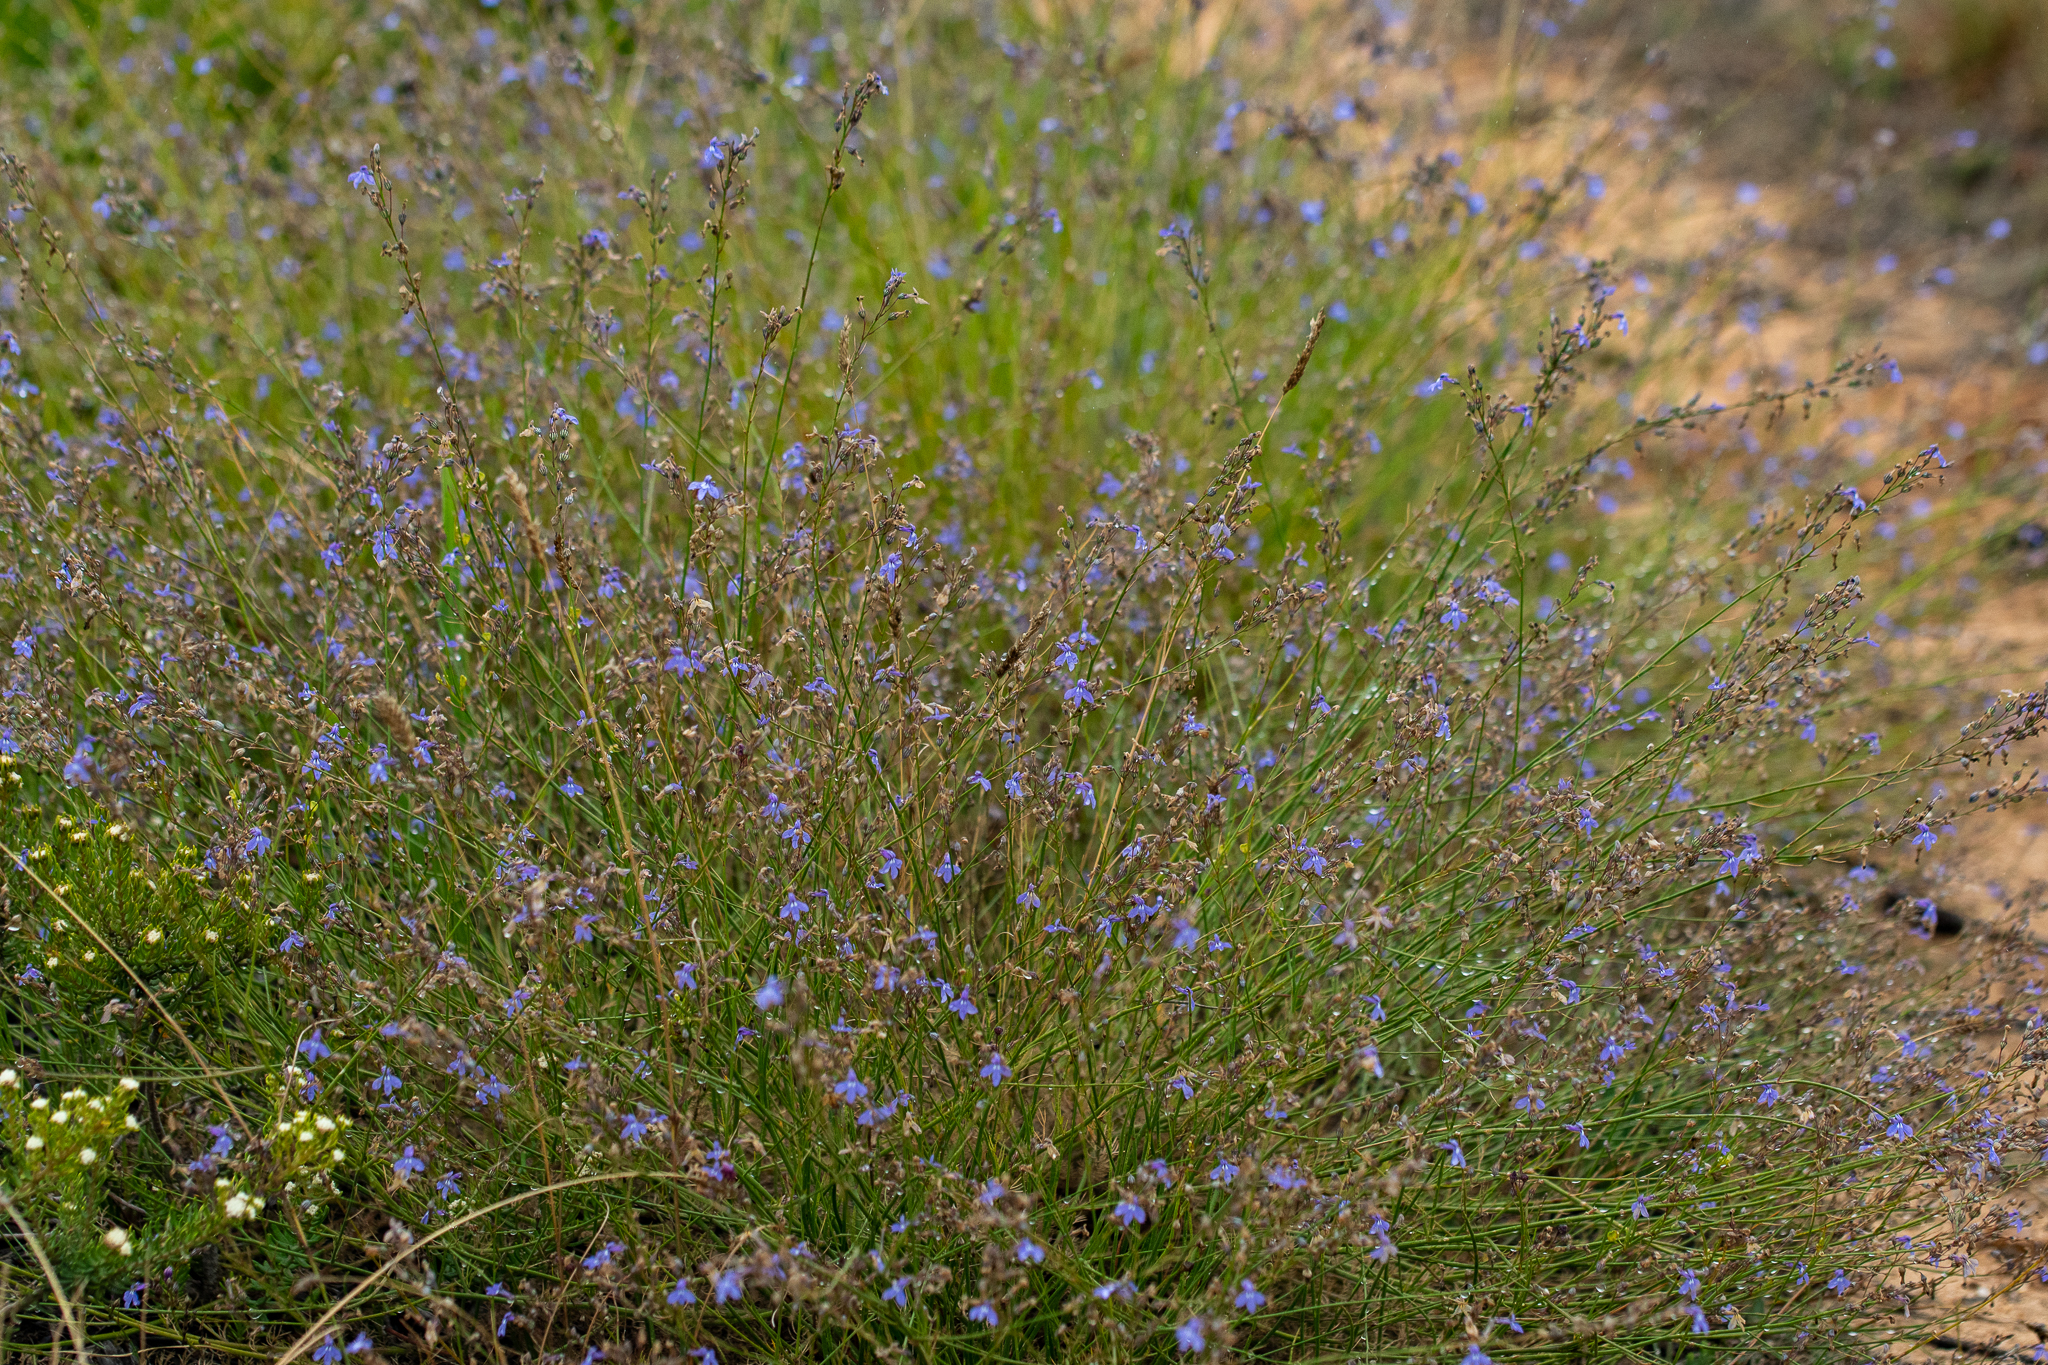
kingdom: Plantae
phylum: Tracheophyta
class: Magnoliopsida
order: Asterales
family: Campanulaceae
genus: Lobelia
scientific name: Lobelia setacea
